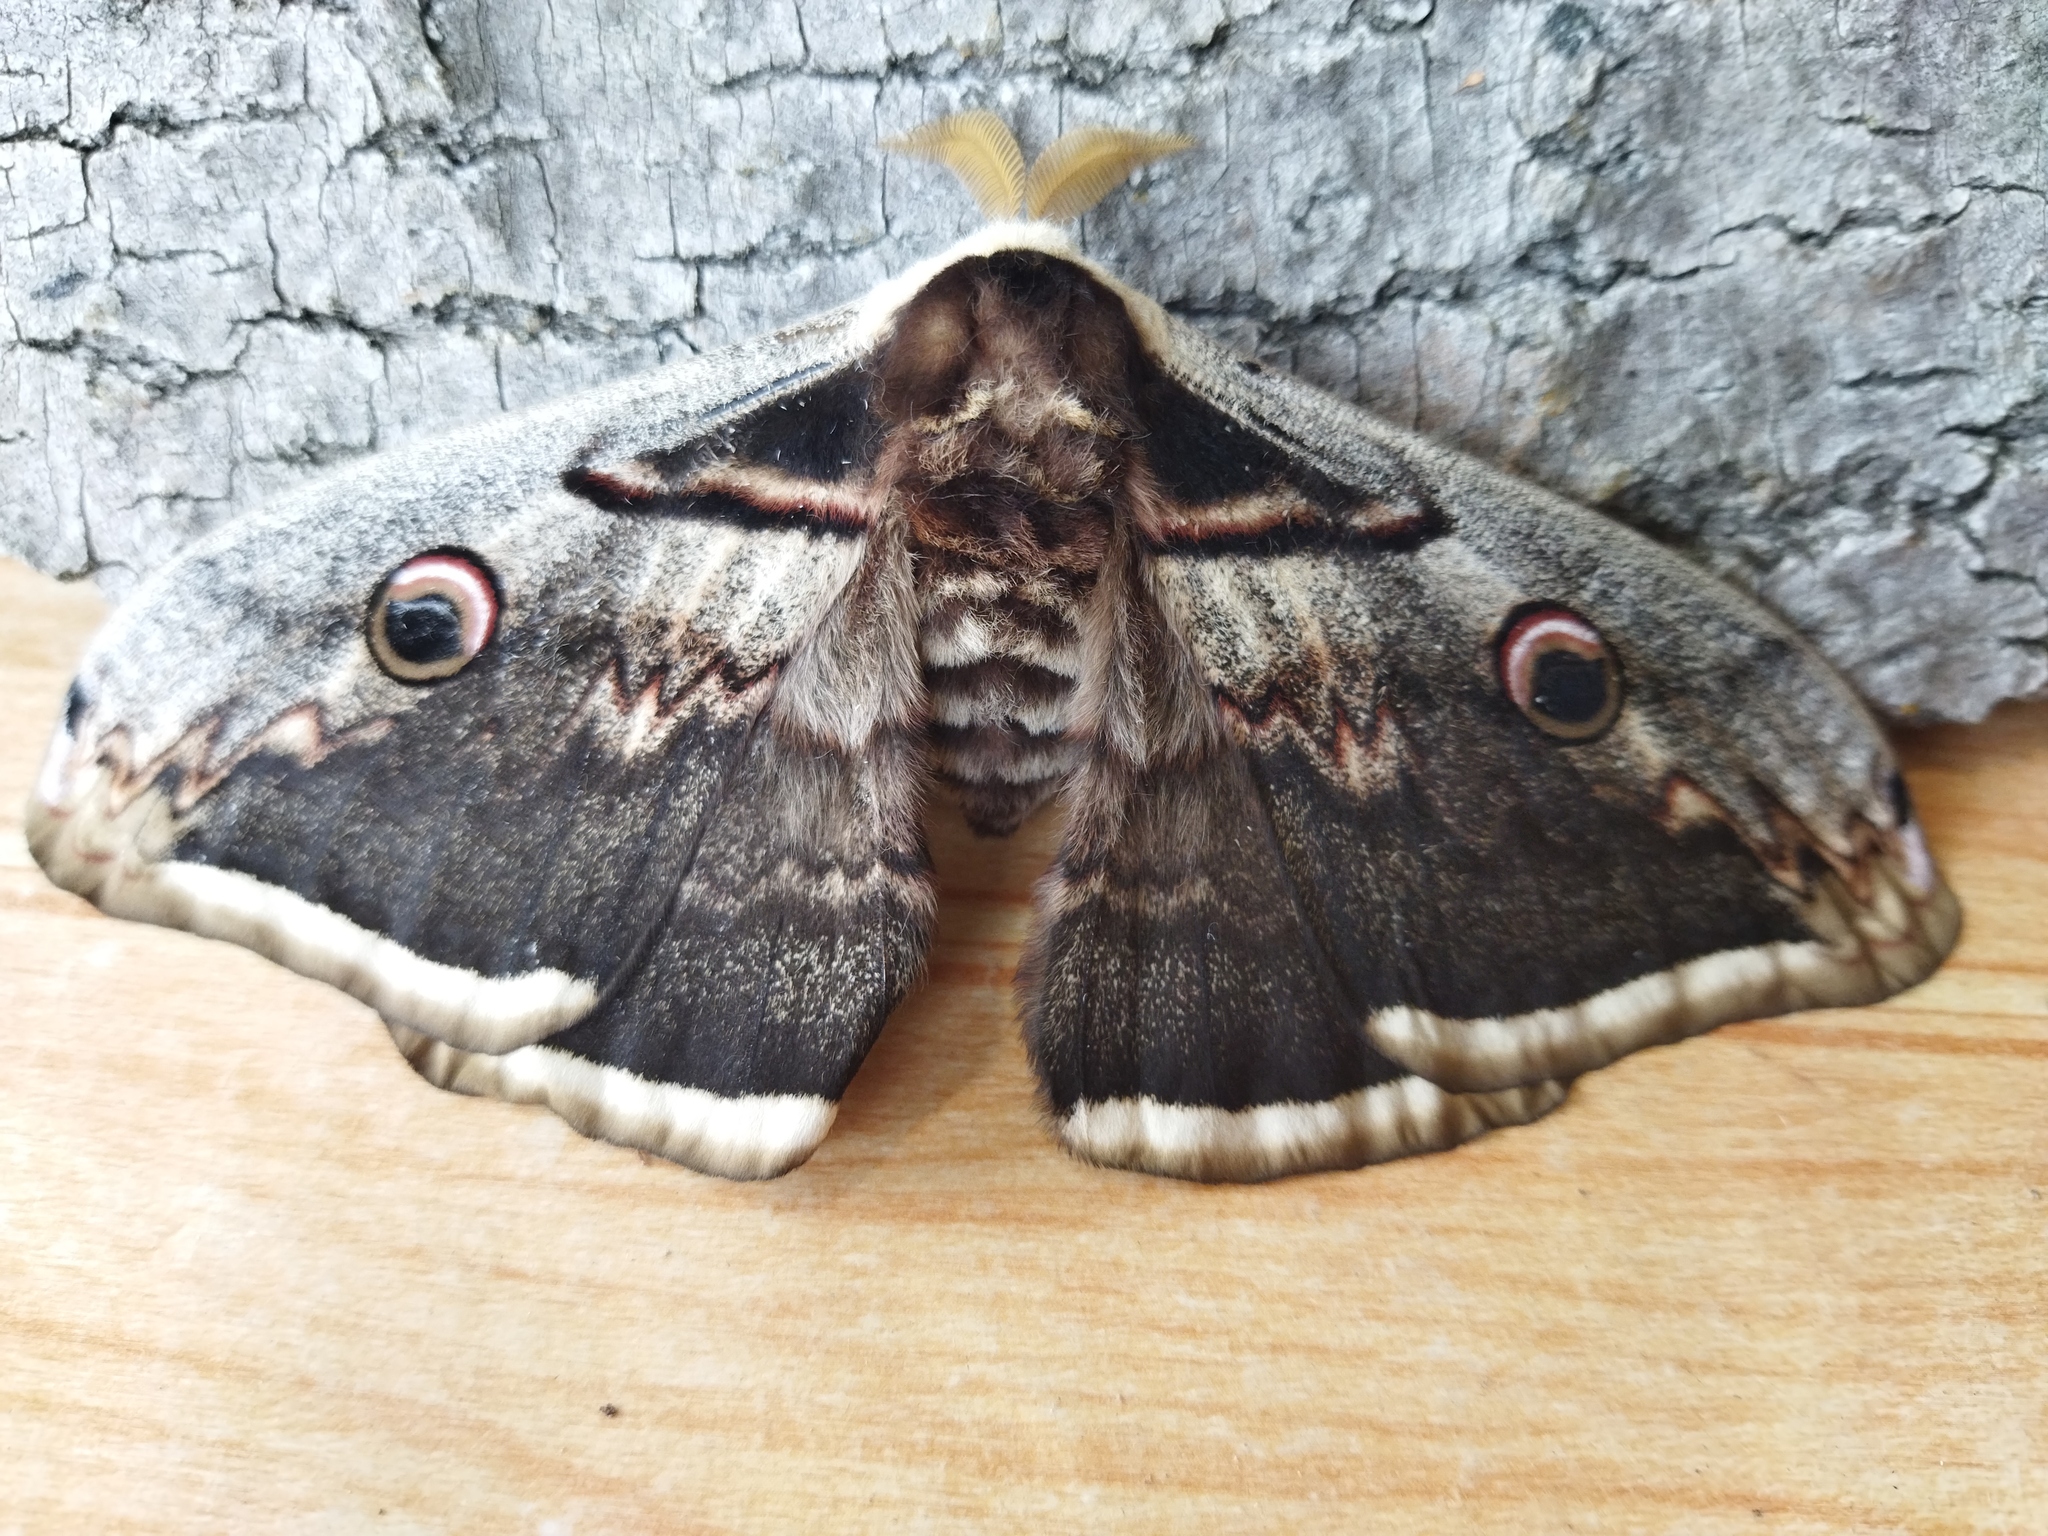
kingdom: Animalia
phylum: Arthropoda
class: Insecta
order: Lepidoptera
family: Saturniidae
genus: Saturnia
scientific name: Saturnia pyri
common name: Great peacock moth
